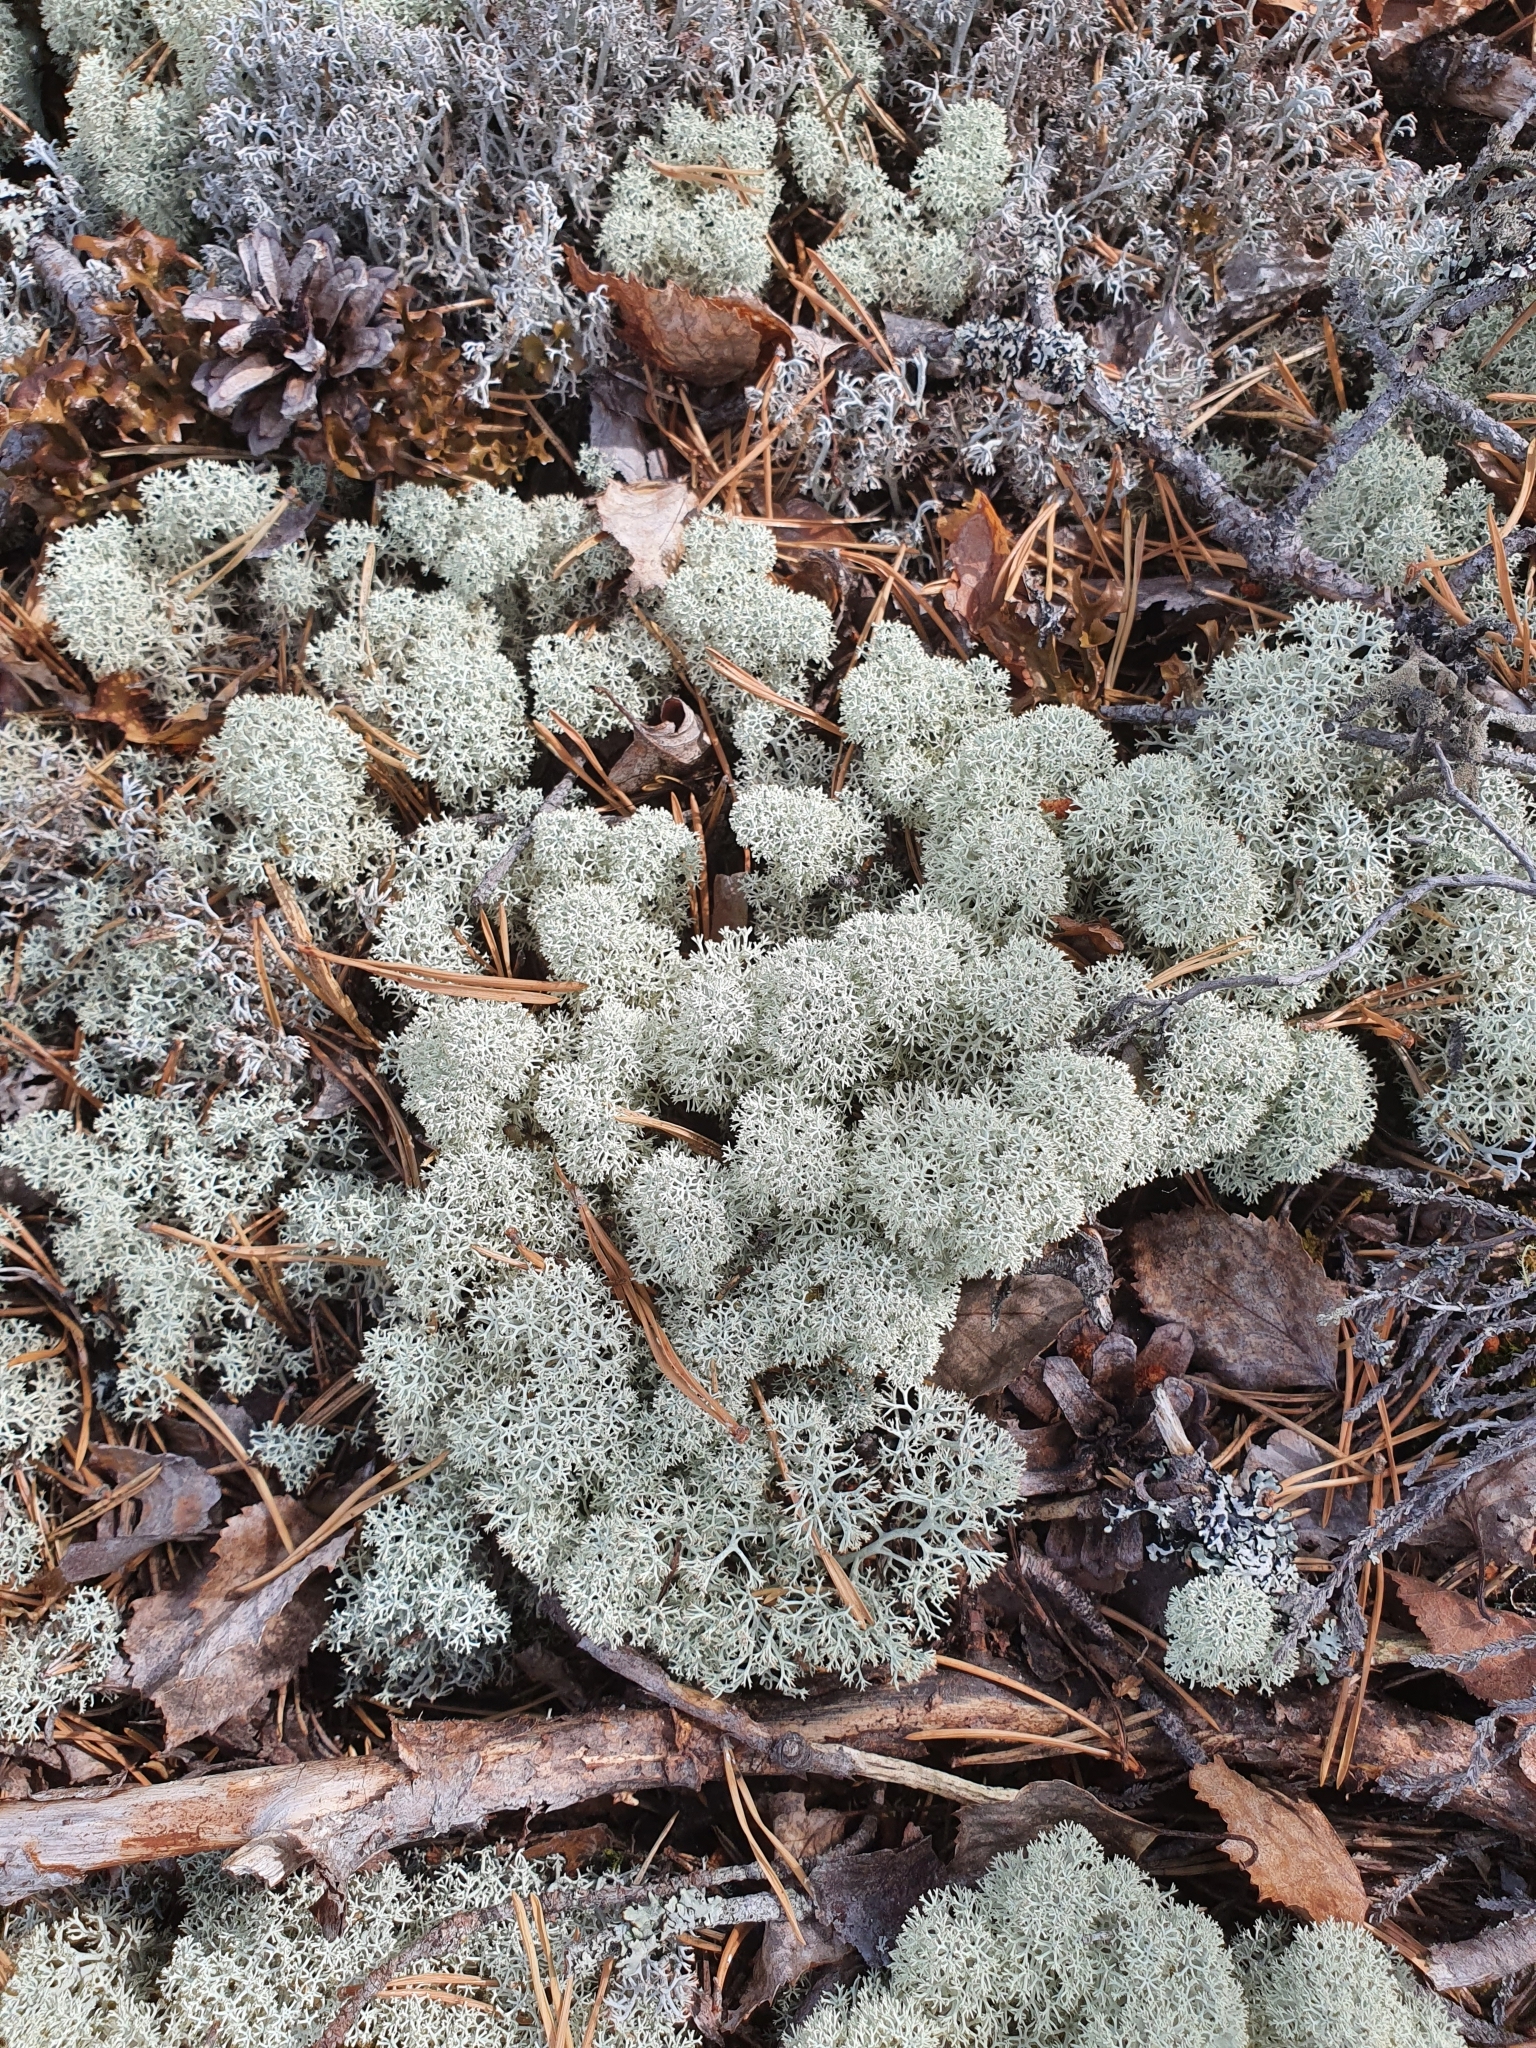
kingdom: Fungi
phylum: Ascomycota
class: Lecanoromycetes
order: Lecanorales
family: Cladoniaceae
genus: Cladonia
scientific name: Cladonia stellaris
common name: Star-tipped reindeer lichen
